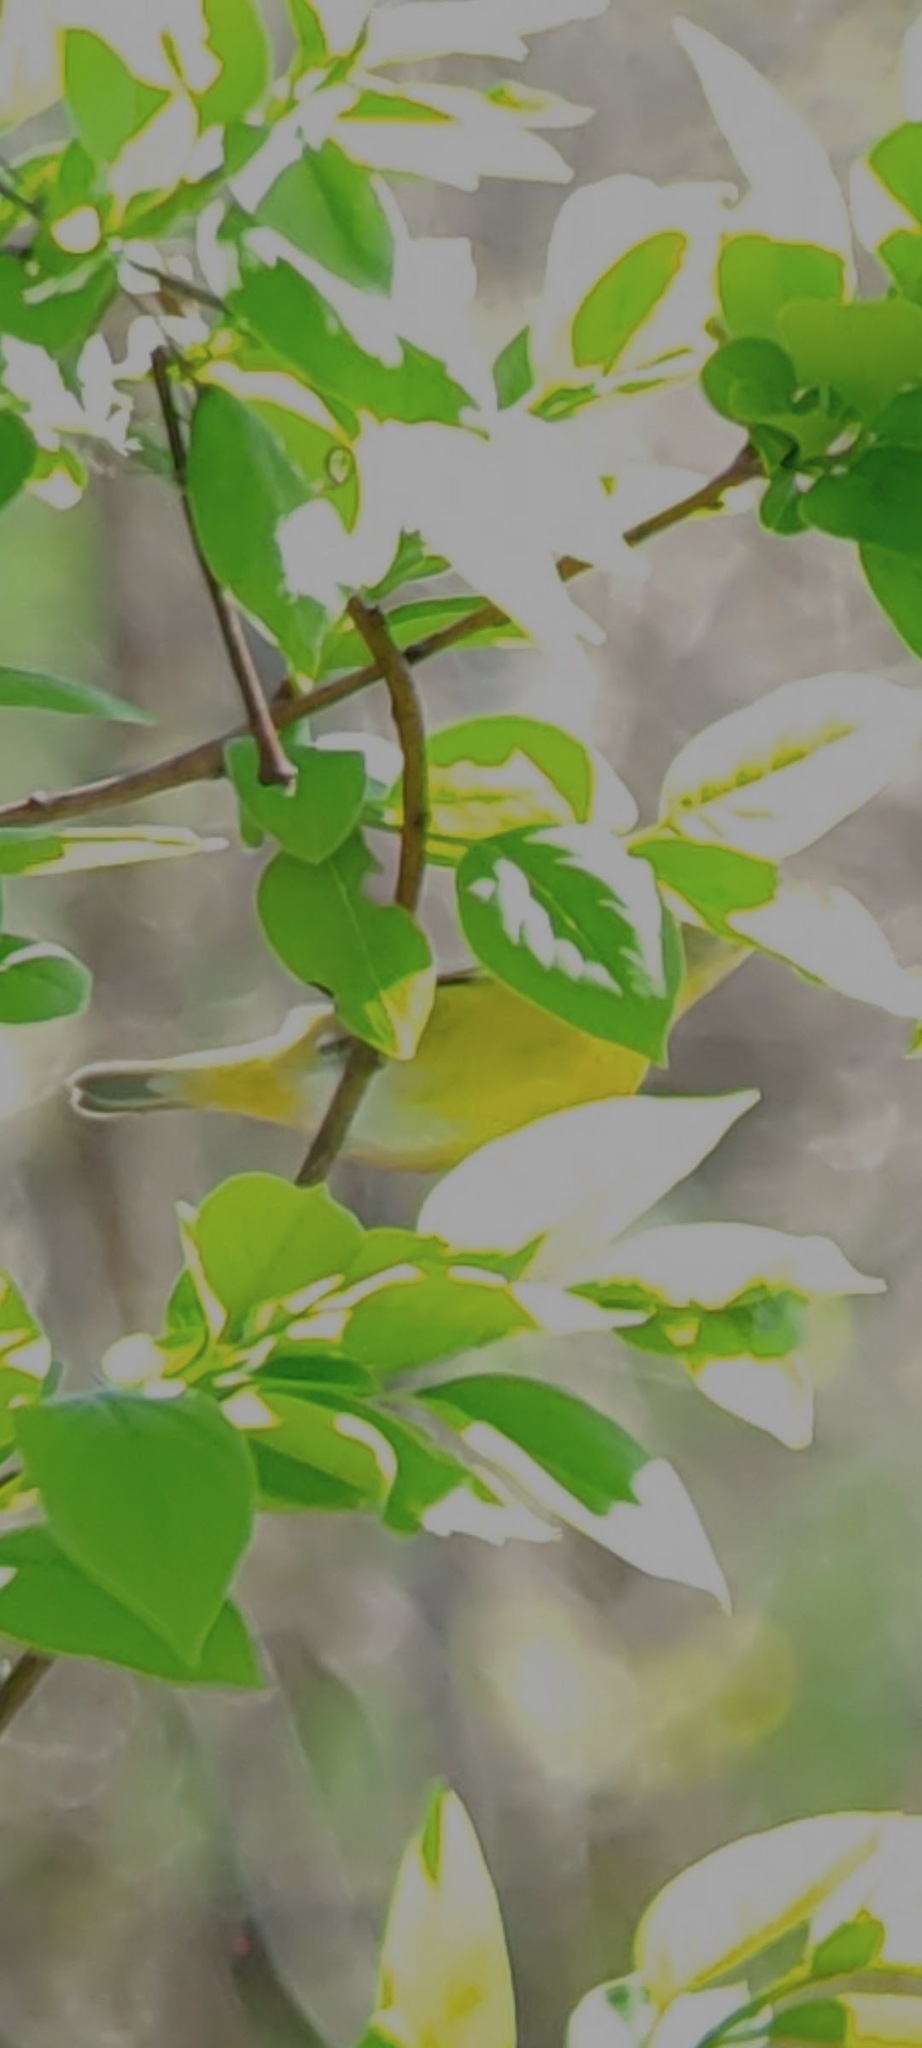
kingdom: Animalia
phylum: Chordata
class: Aves
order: Passeriformes
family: Parulidae
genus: Leiothlypis
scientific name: Leiothlypis ruficapilla
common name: Nashville warbler
